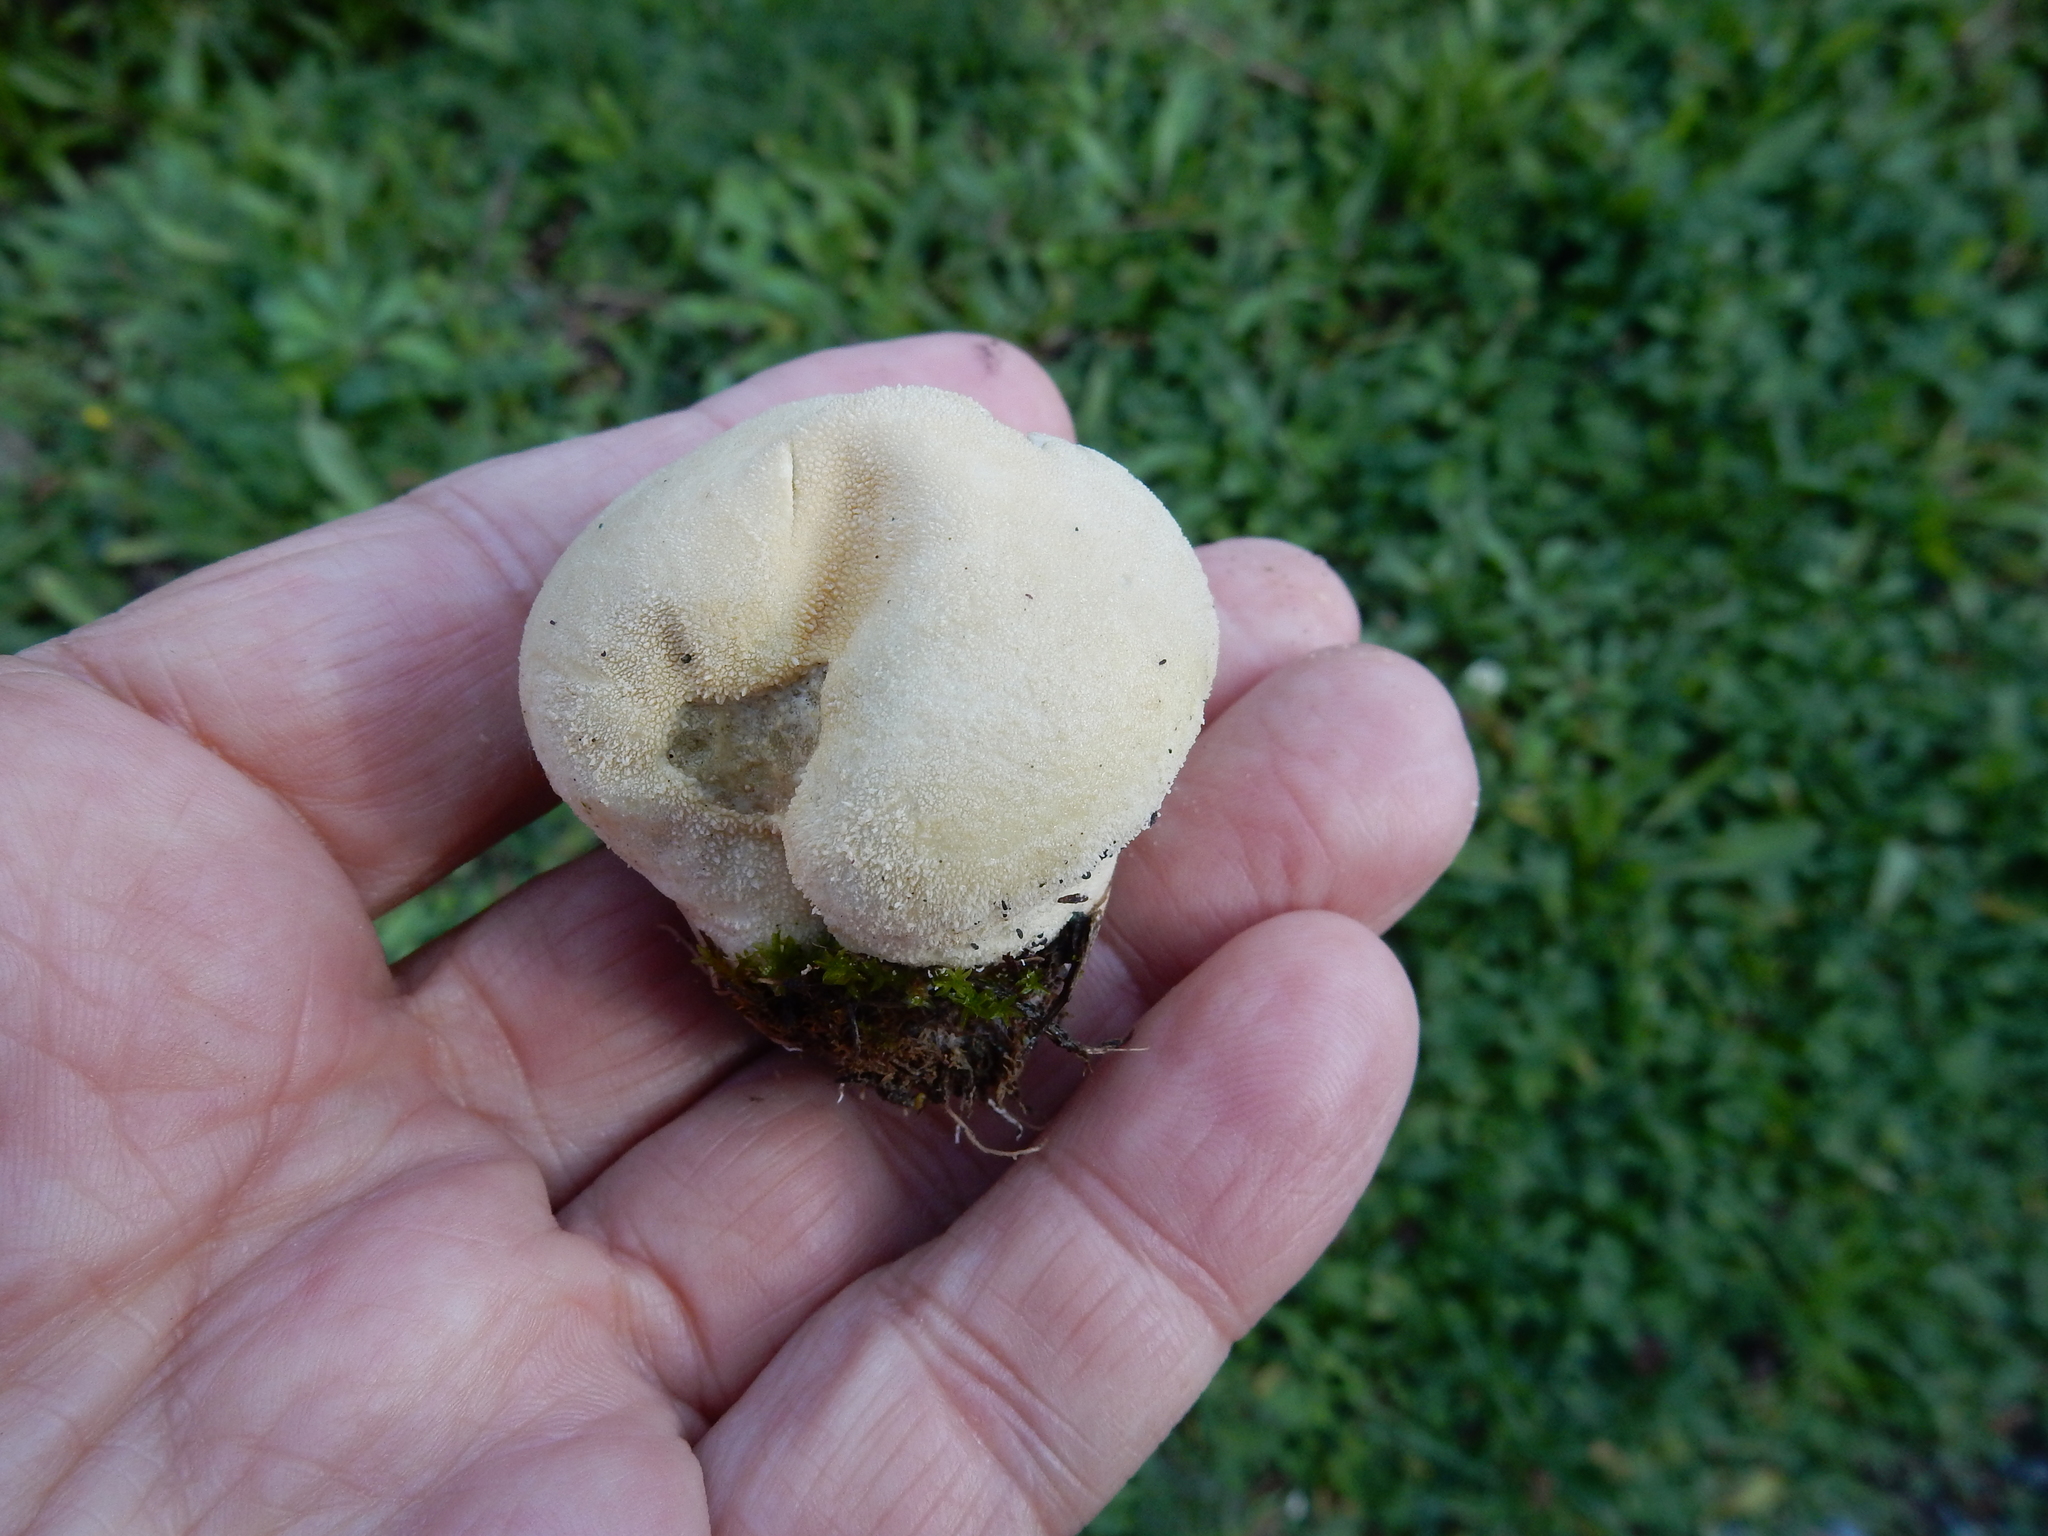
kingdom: Fungi
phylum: Basidiomycota
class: Agaricomycetes
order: Agaricales
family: Lycoperdaceae
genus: Lycoperdon
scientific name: Lycoperdon pratense
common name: Meadow puffball
